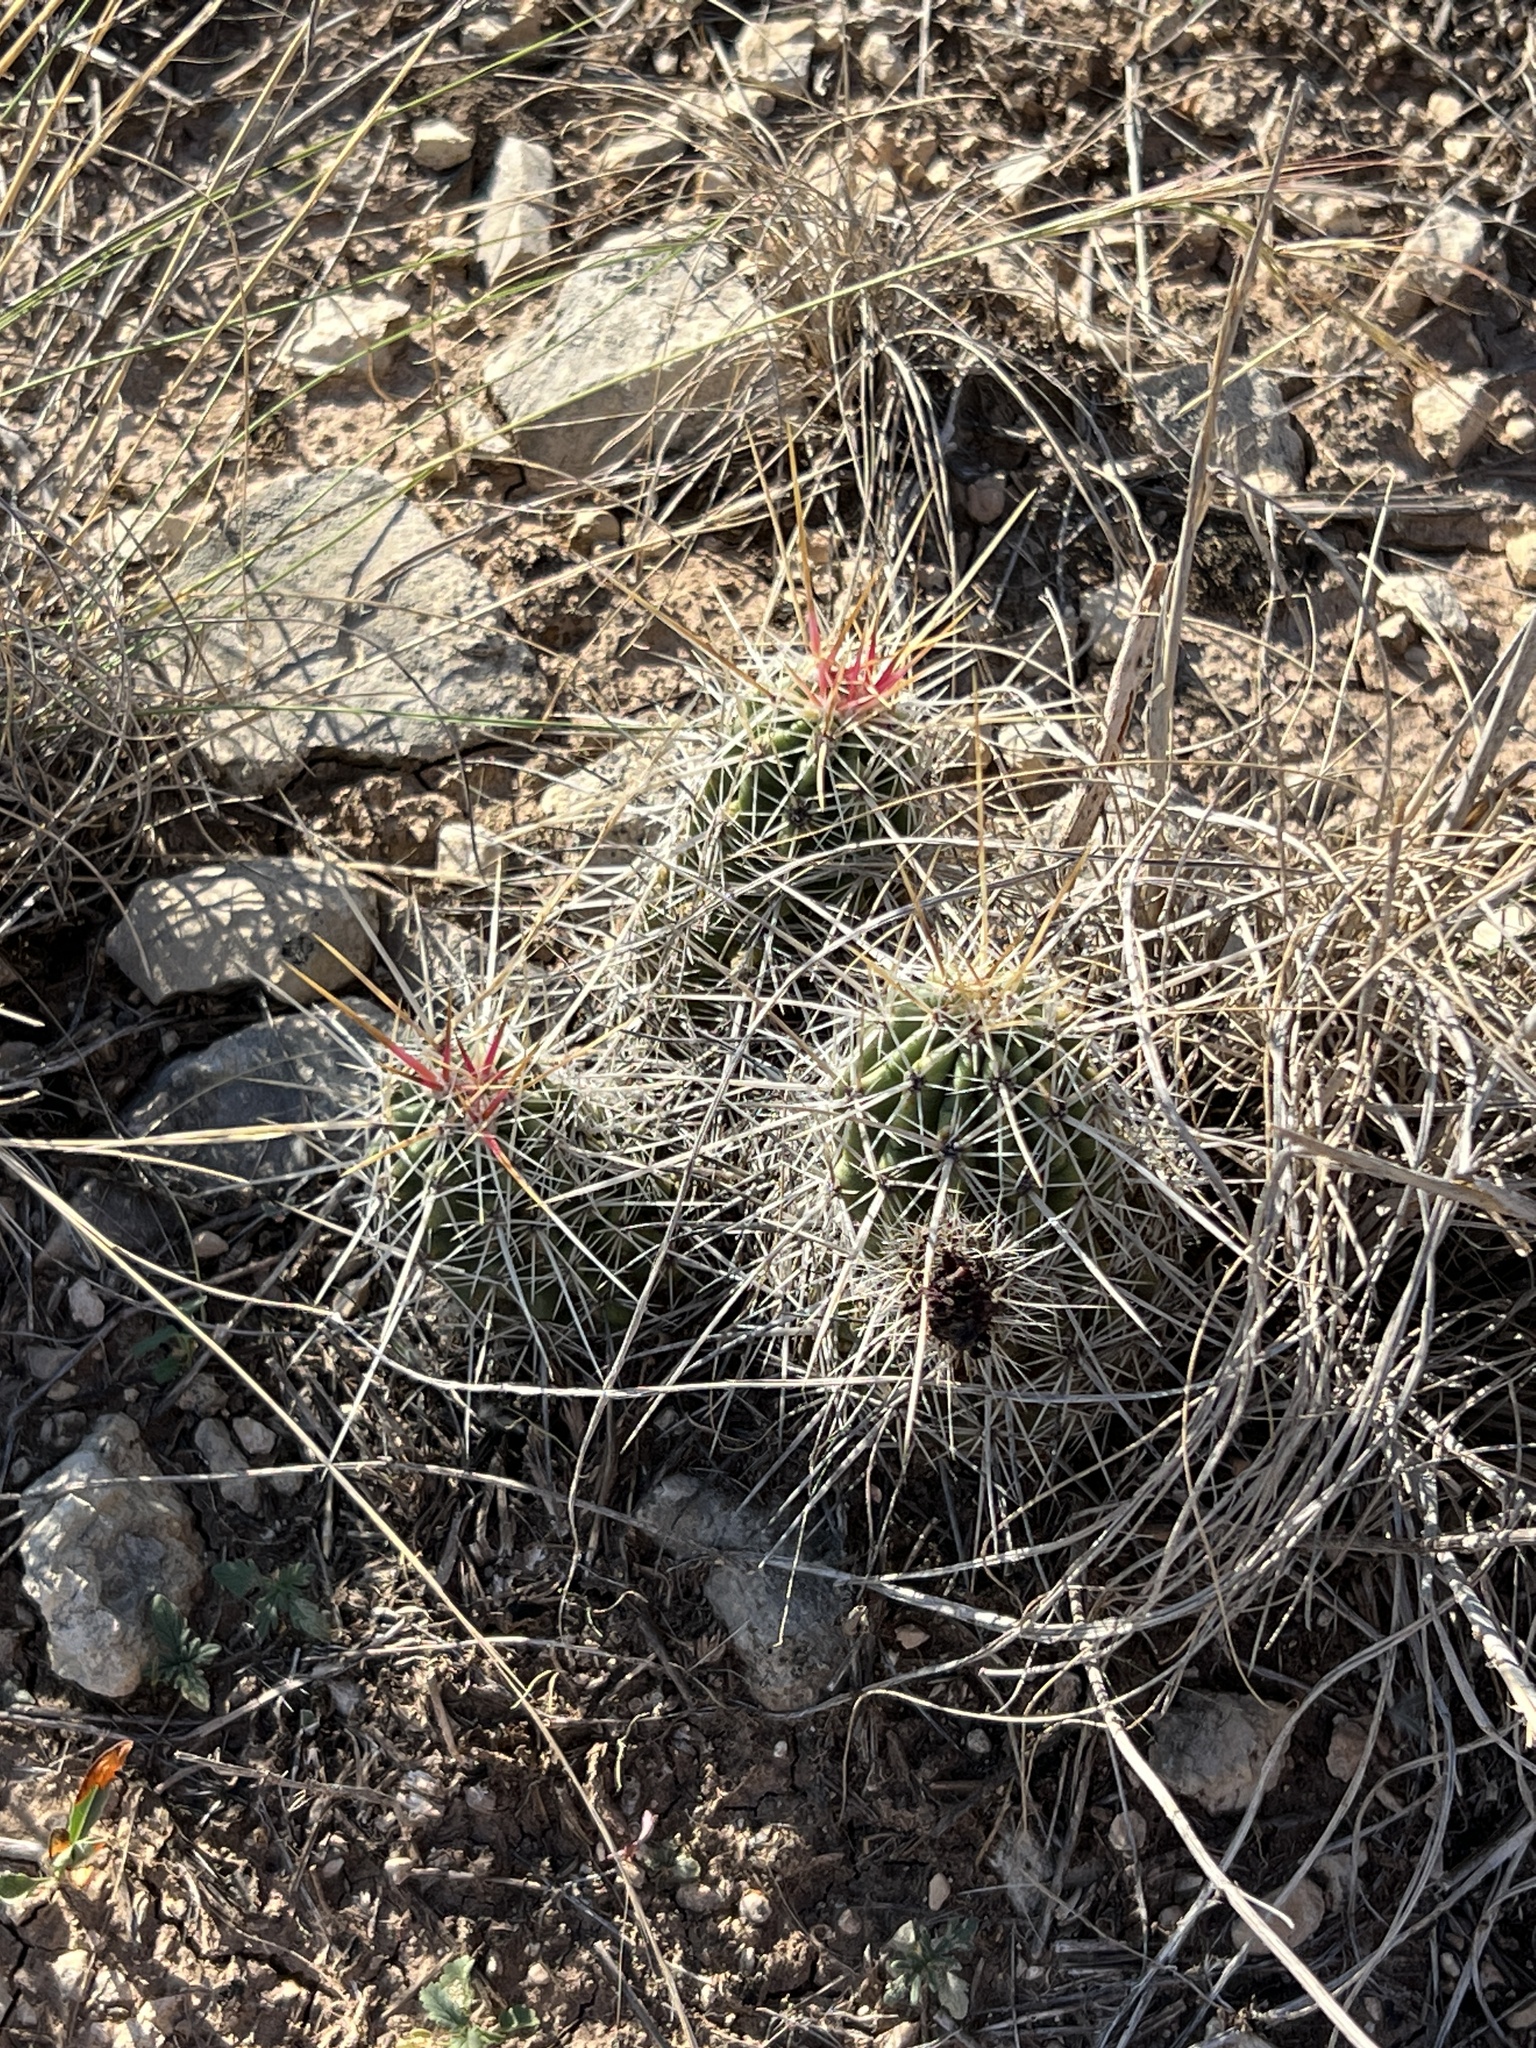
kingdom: Plantae
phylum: Tracheophyta
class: Magnoliopsida
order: Caryophyllales
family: Cactaceae
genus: Echinocereus
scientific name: Echinocereus enneacanthus
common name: Pitaya
